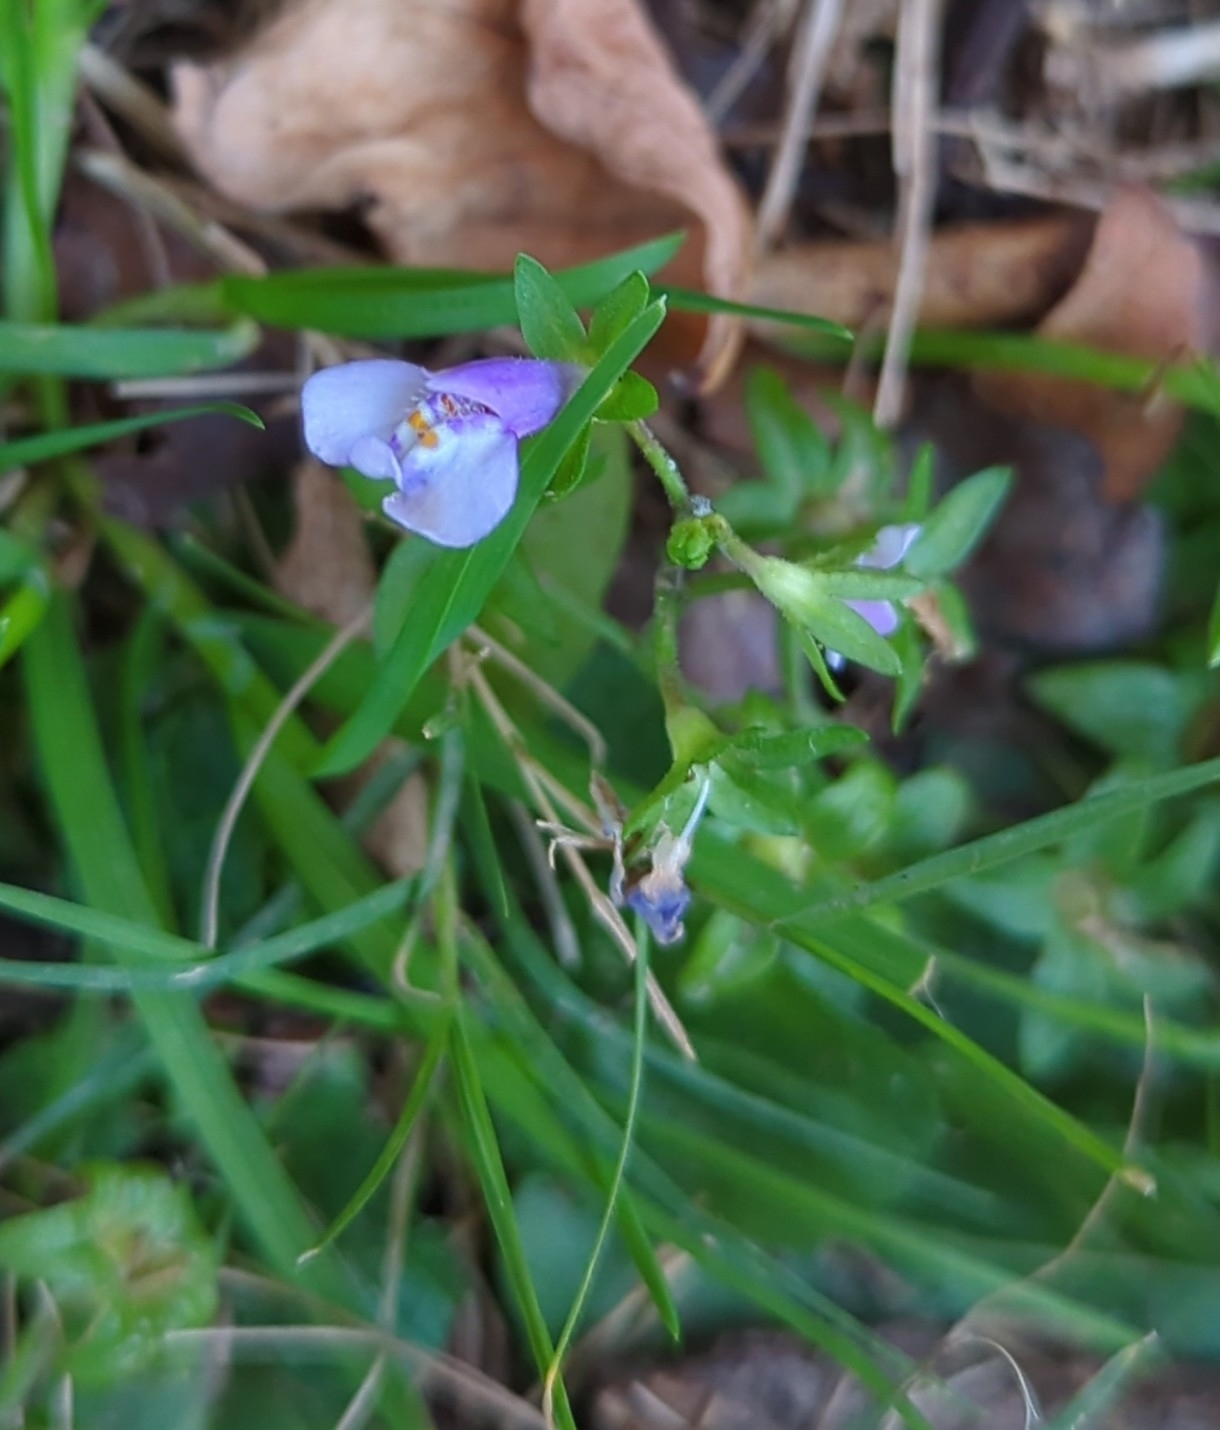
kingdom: Plantae
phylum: Tracheophyta
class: Magnoliopsida
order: Lamiales
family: Mazaceae
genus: Mazus
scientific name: Mazus pumilus
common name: Japanese mazus
